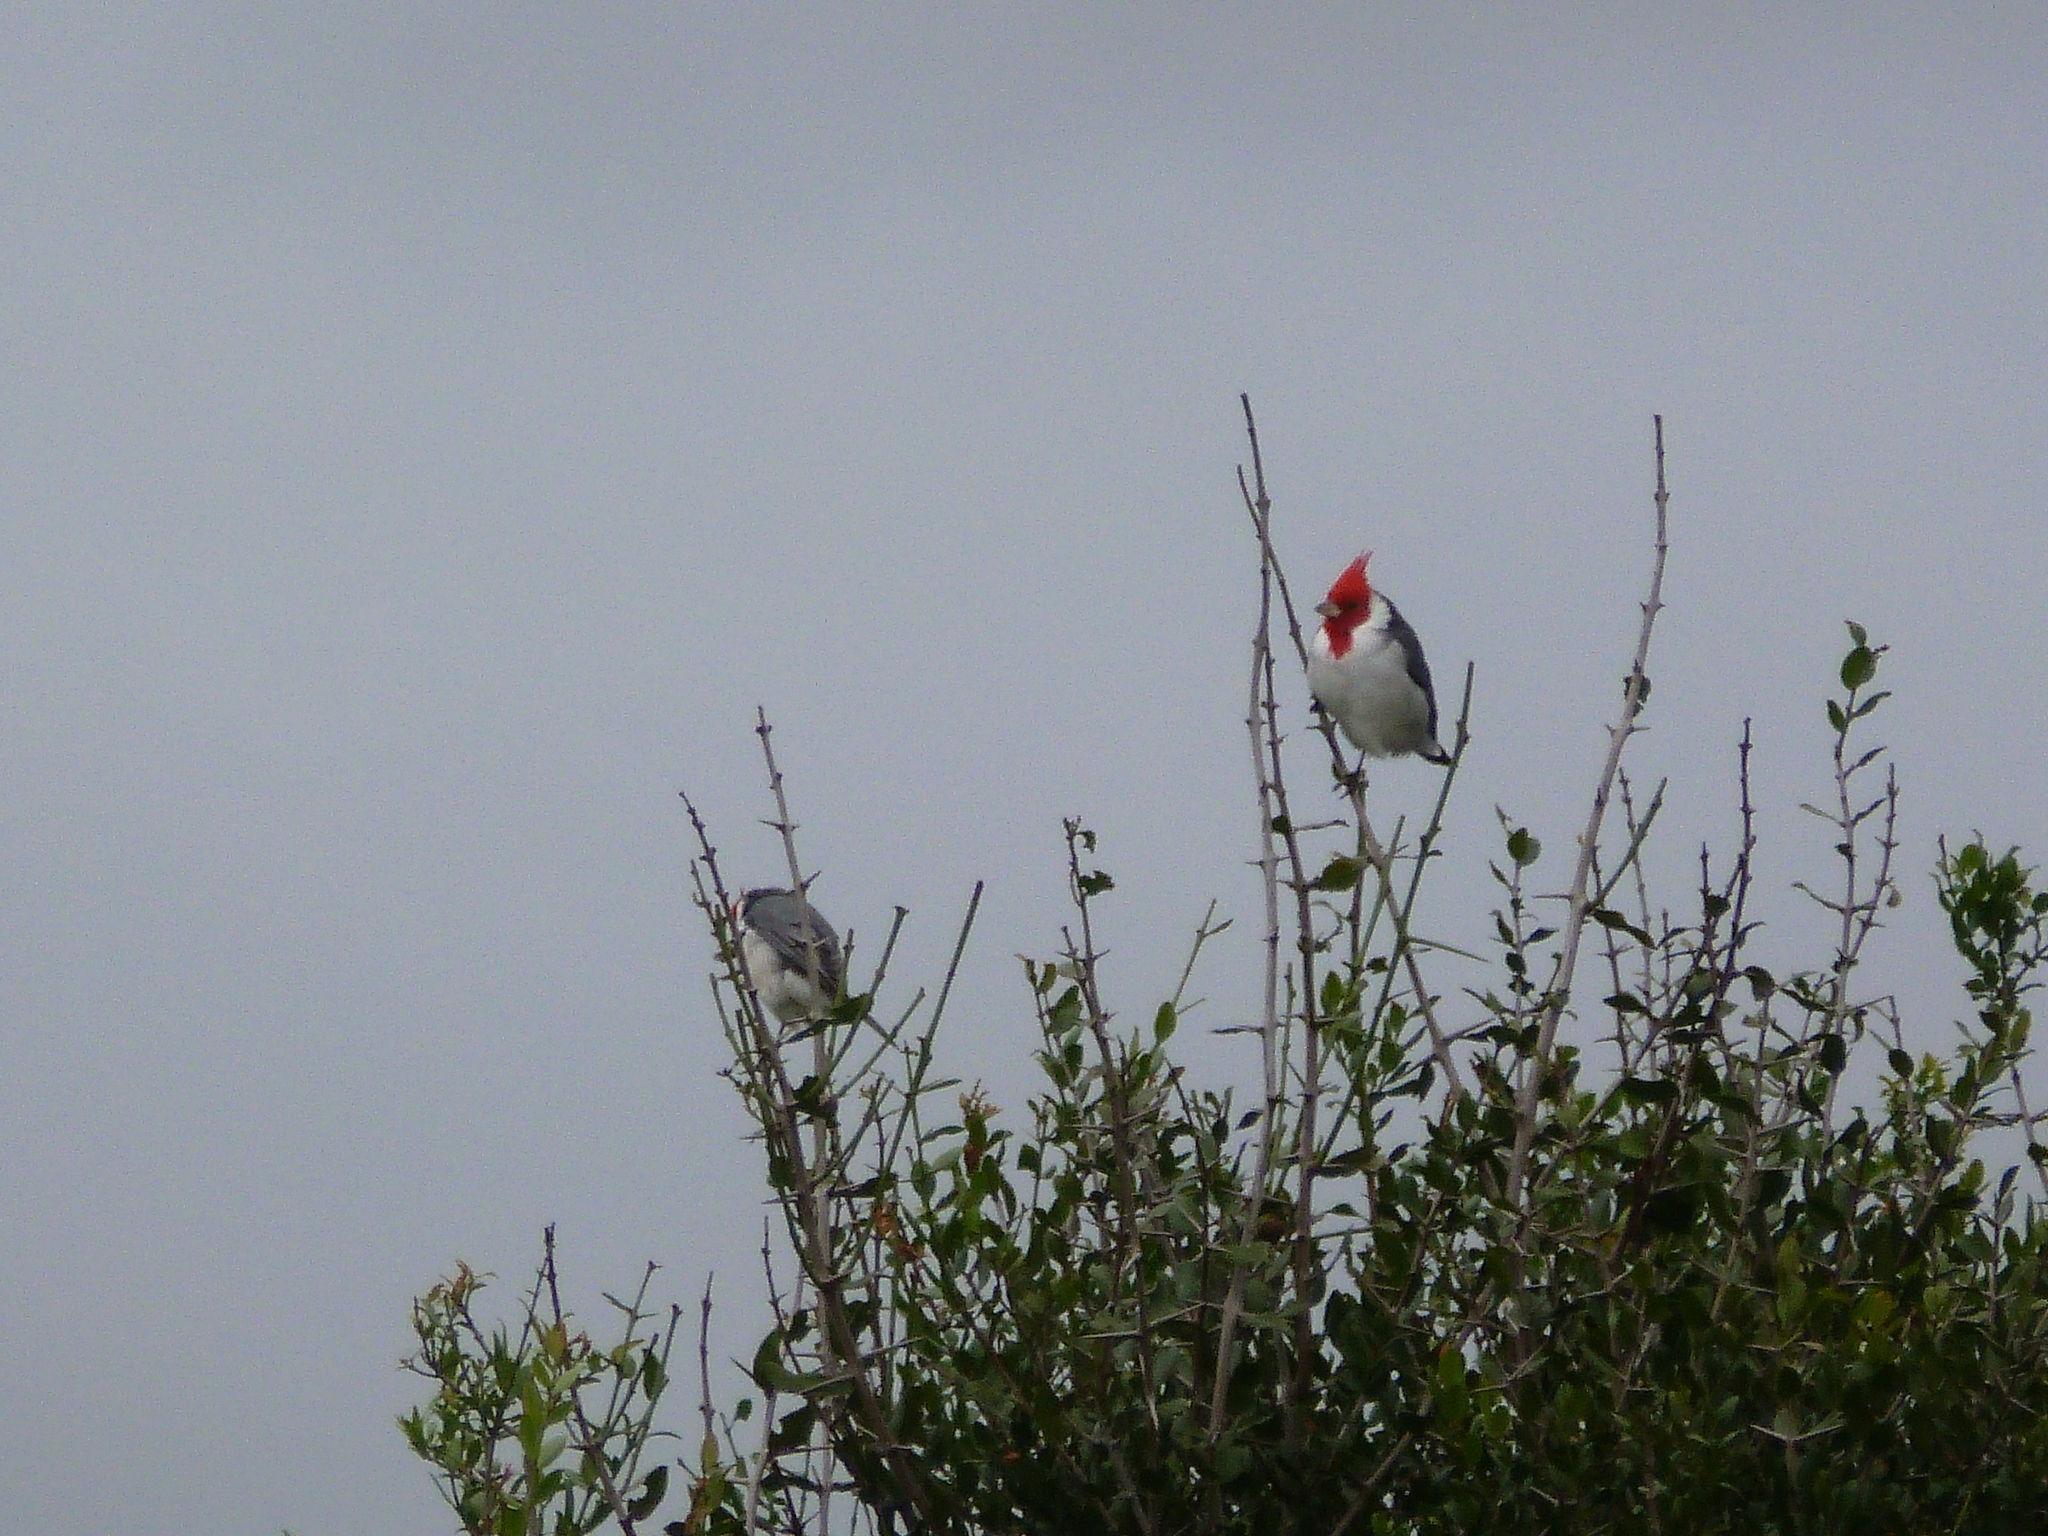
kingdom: Animalia
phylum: Chordata
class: Aves
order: Passeriformes
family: Thraupidae
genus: Paroaria
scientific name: Paroaria coronata
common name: Red-crested cardinal
